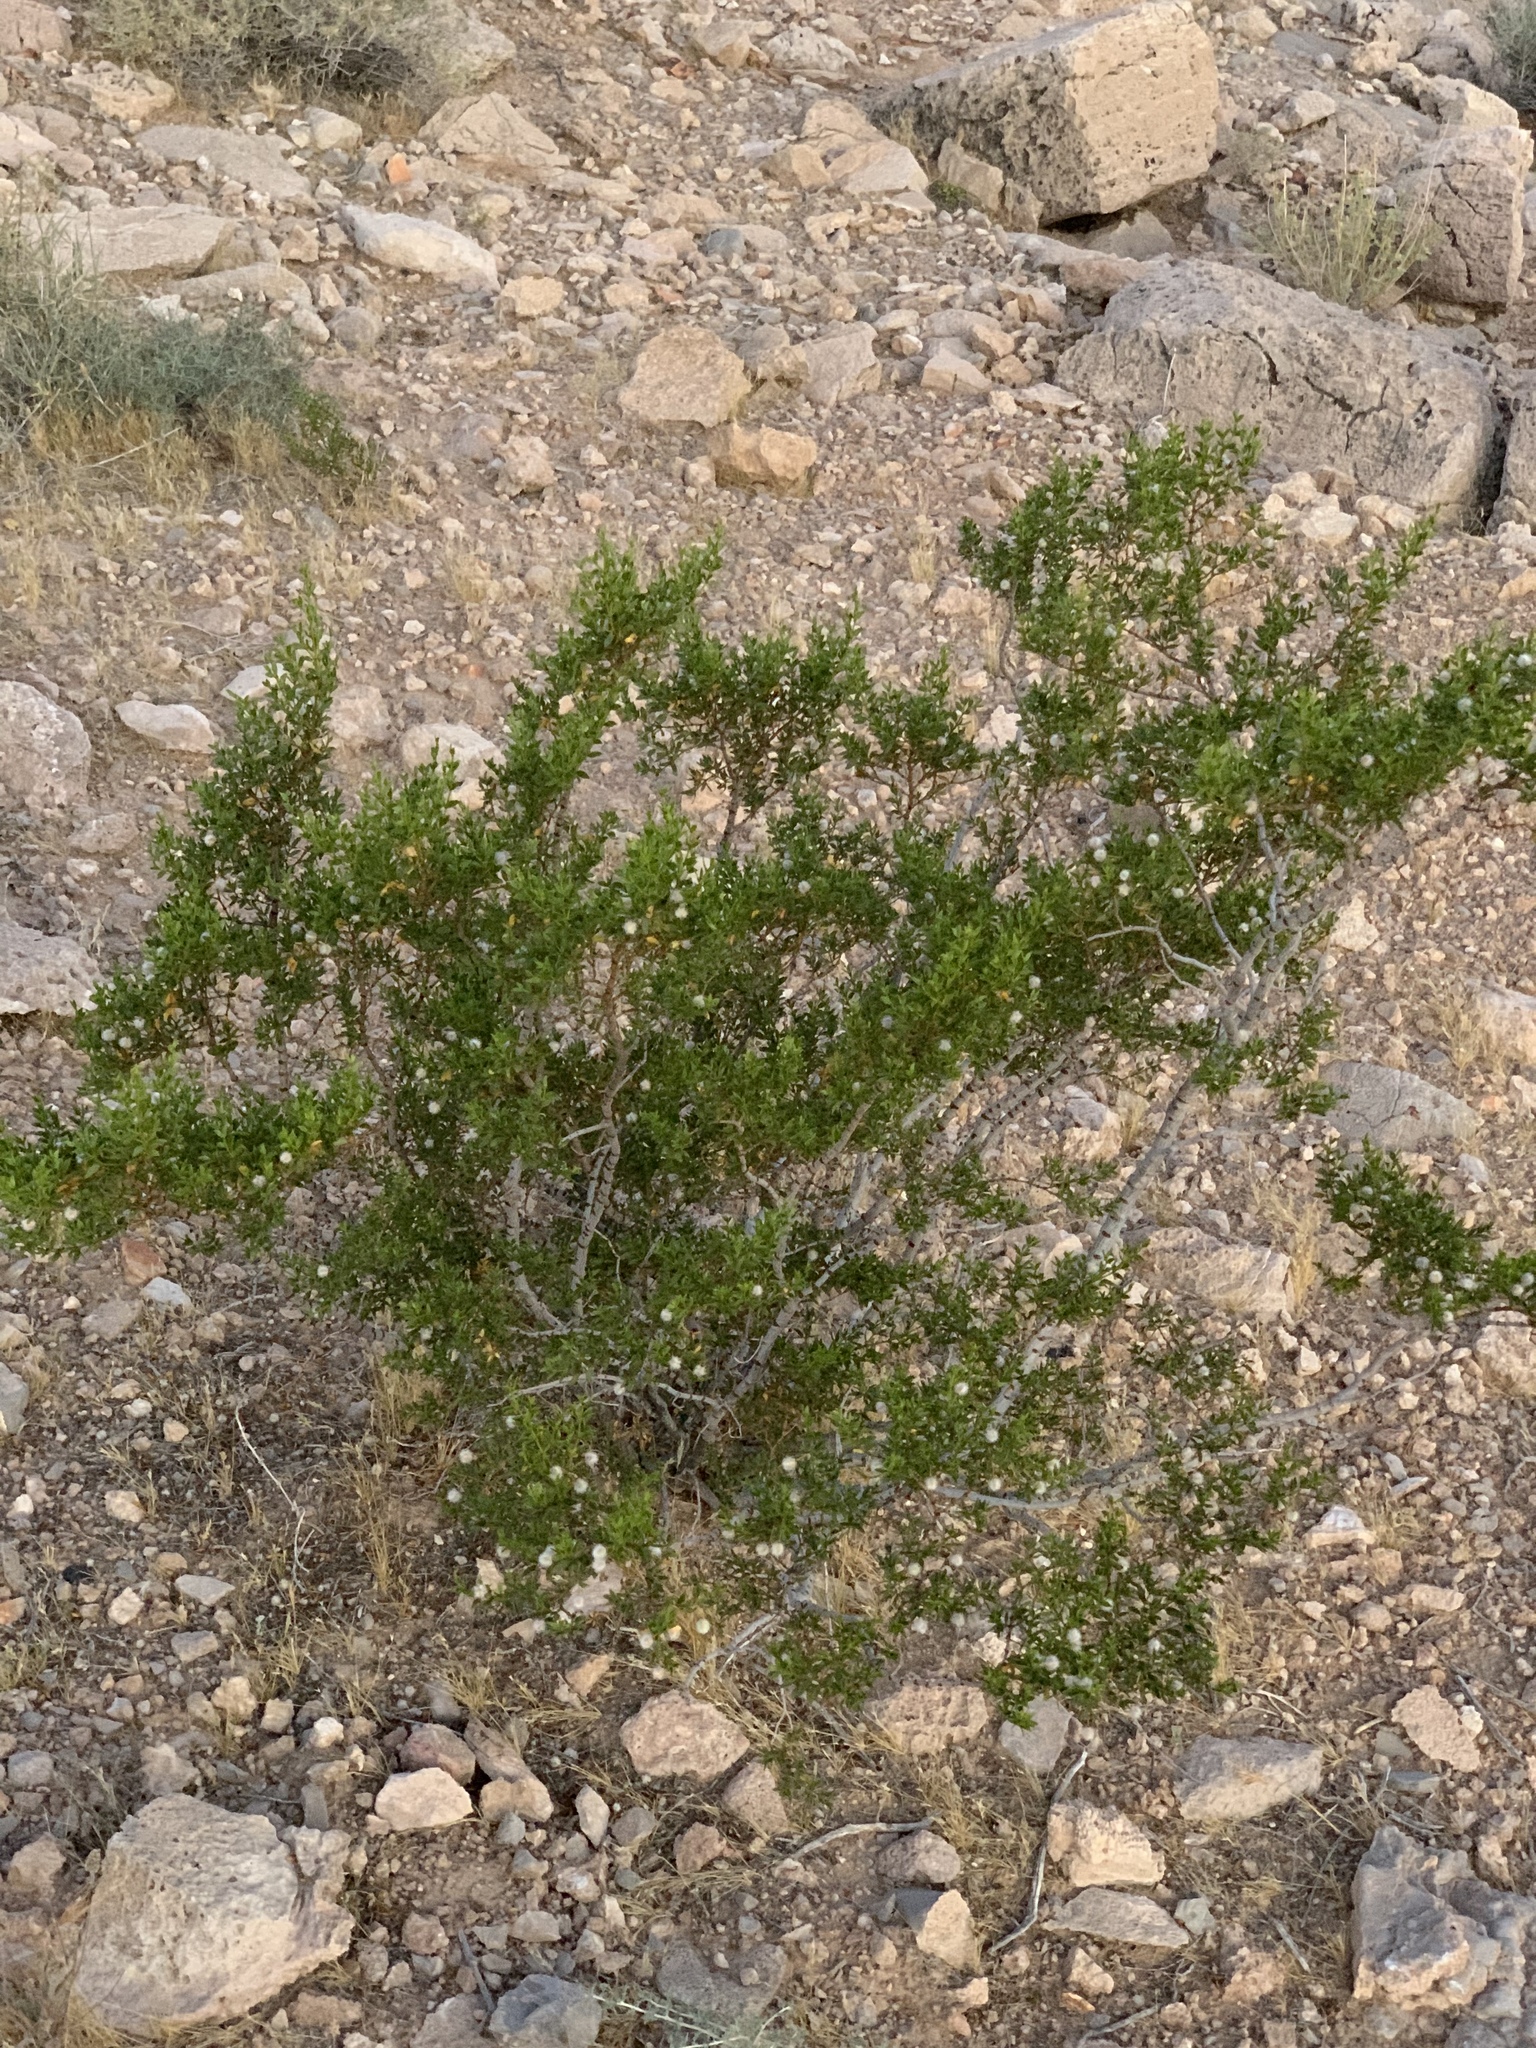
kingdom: Plantae
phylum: Tracheophyta
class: Magnoliopsida
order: Zygophyllales
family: Zygophyllaceae
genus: Larrea
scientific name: Larrea tridentata
